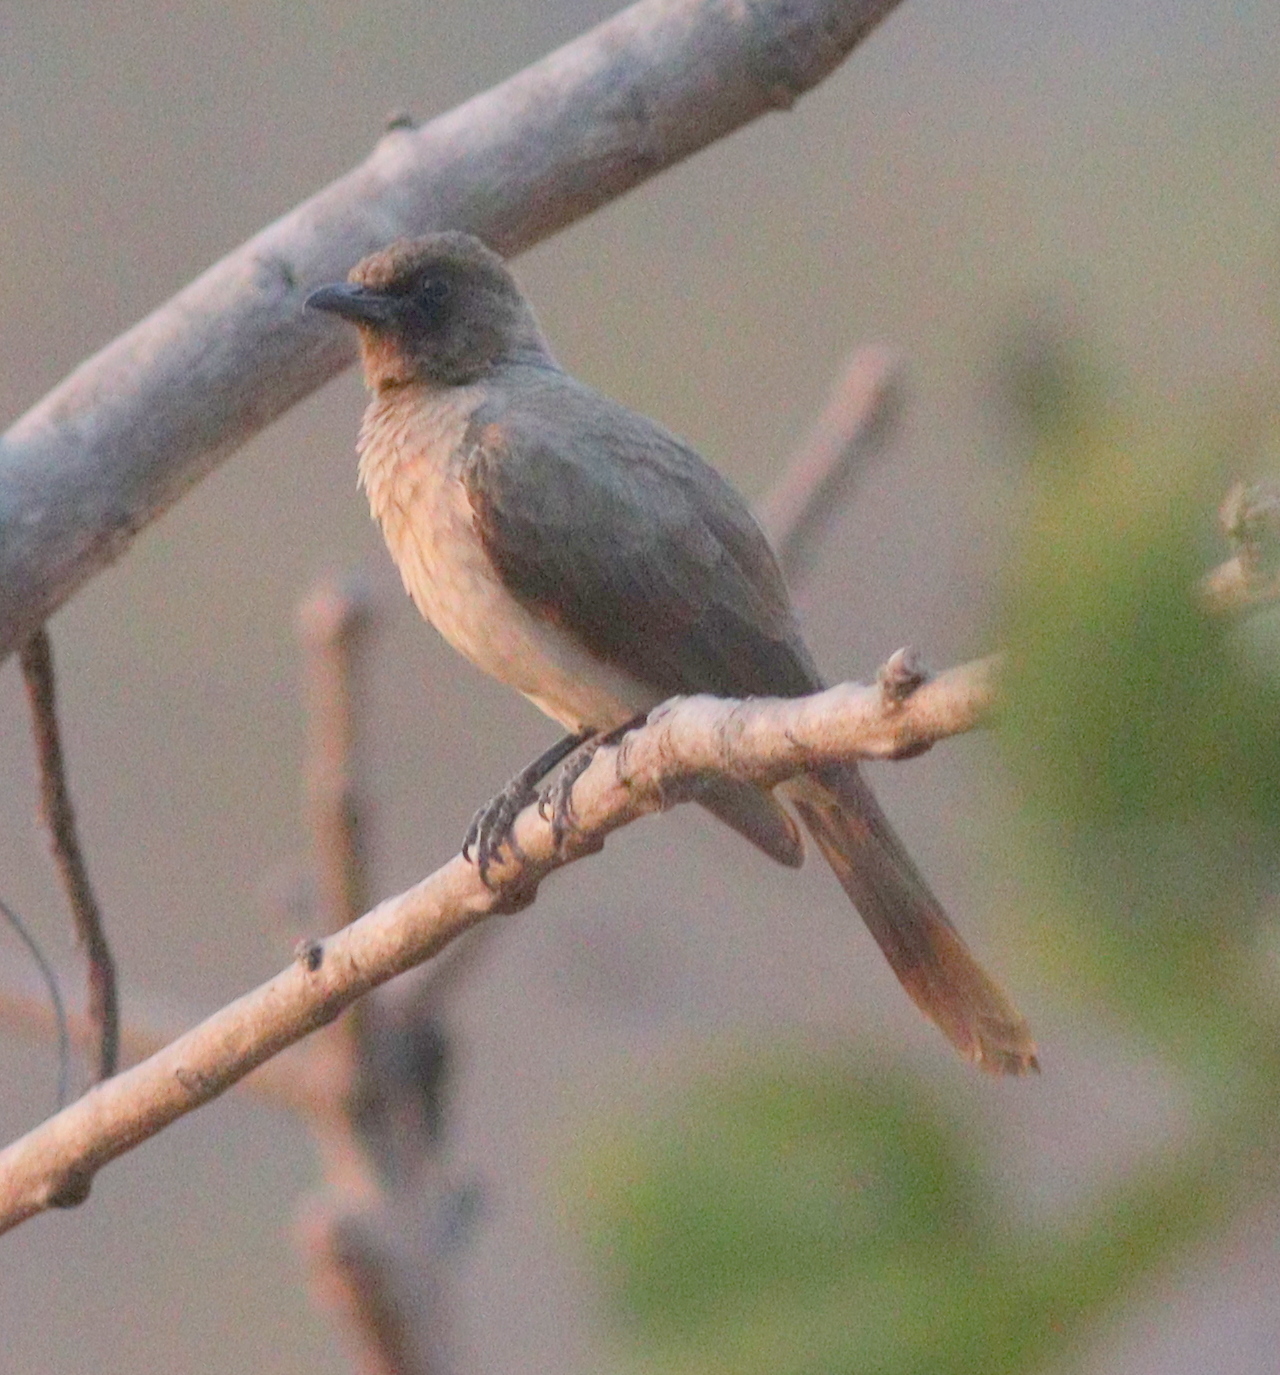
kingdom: Animalia
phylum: Chordata
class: Aves
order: Passeriformes
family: Pycnonotidae
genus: Pycnonotus
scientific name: Pycnonotus barbatus
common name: Common bulbul
